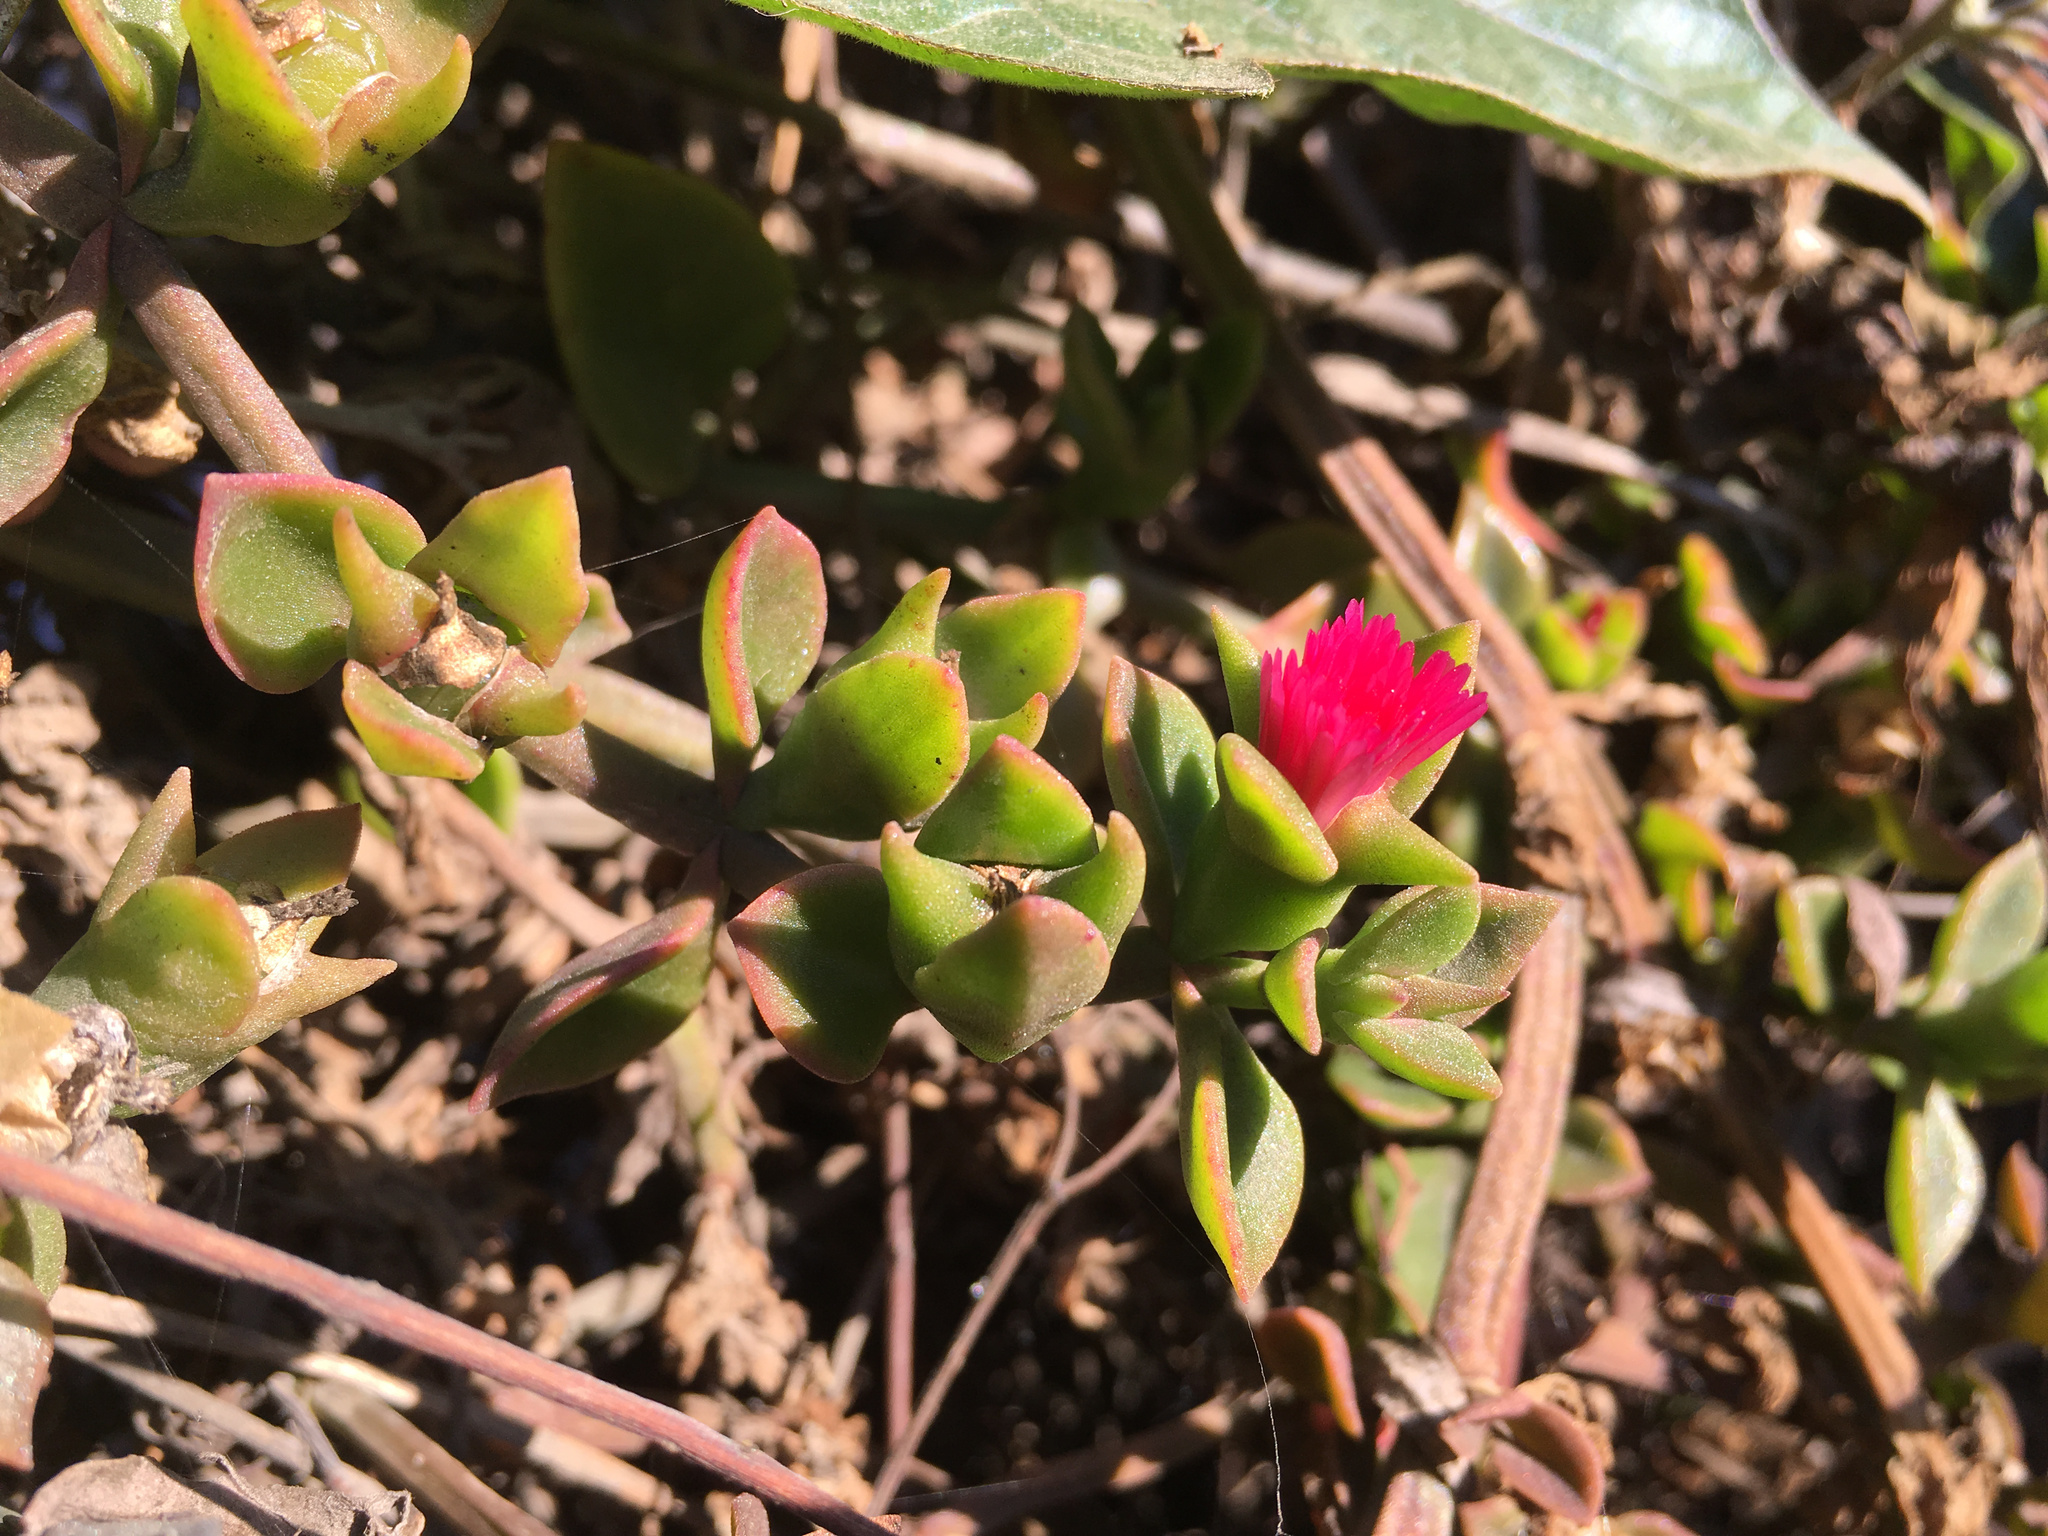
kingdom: Plantae
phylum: Tracheophyta
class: Magnoliopsida
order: Caryophyllales
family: Aizoaceae
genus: Mesembryanthemum
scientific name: Mesembryanthemum cordifolium
